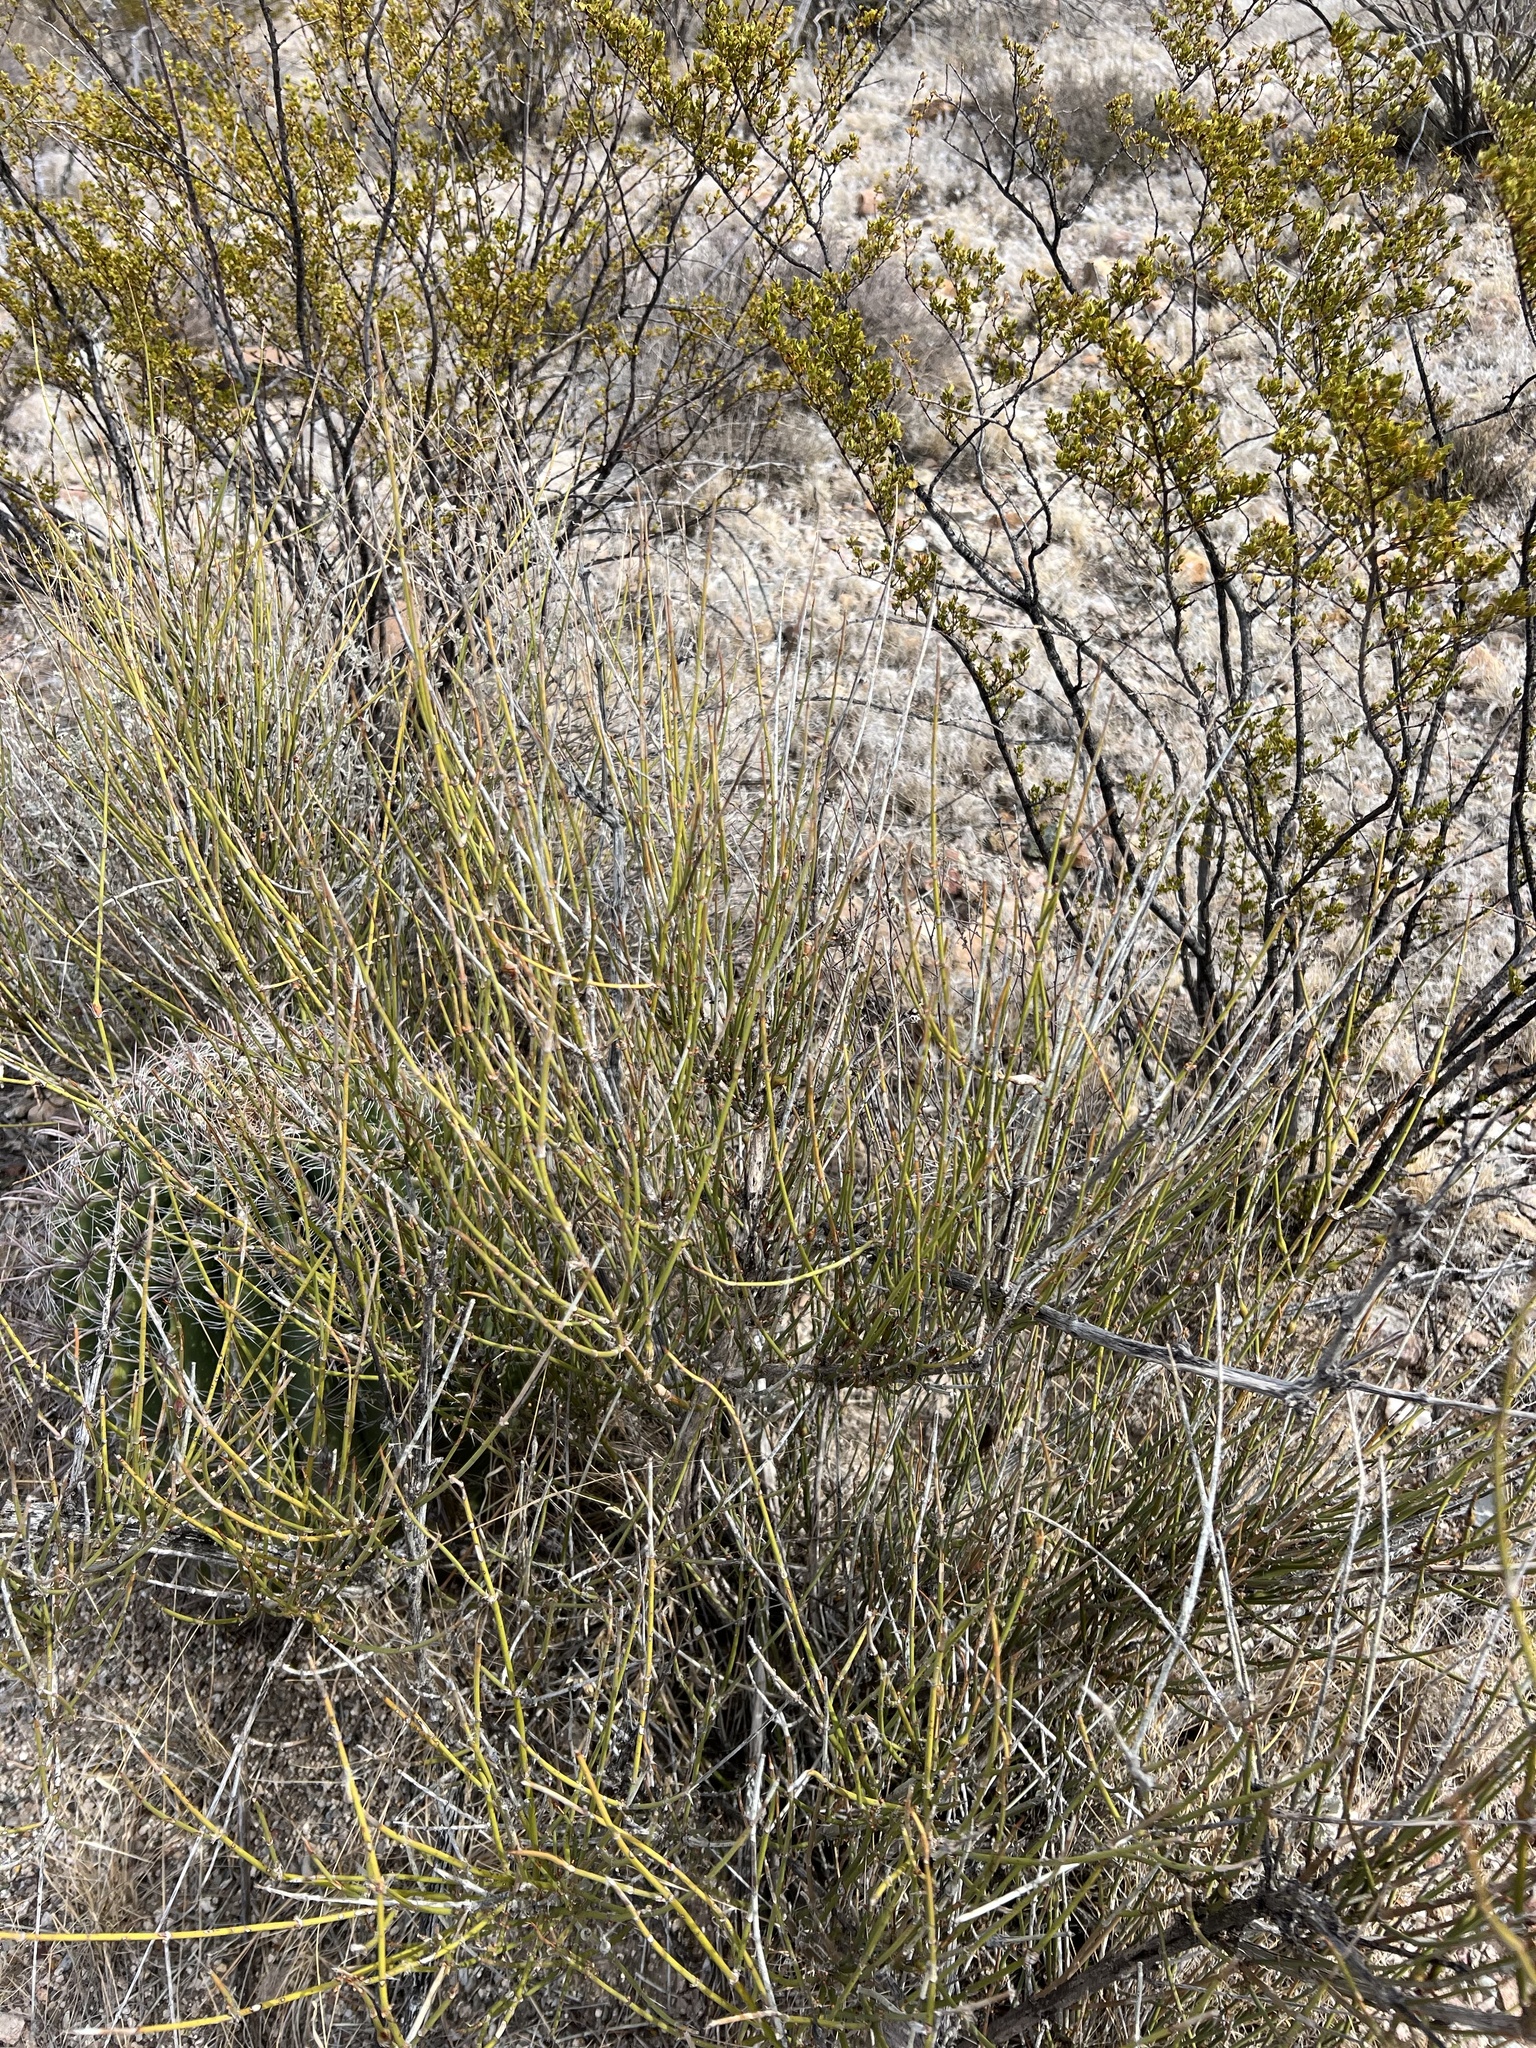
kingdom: Plantae
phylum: Tracheophyta
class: Gnetopsida
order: Ephedrales
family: Ephedraceae
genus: Ephedra
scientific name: Ephedra trifurca
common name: Mexican-tea
